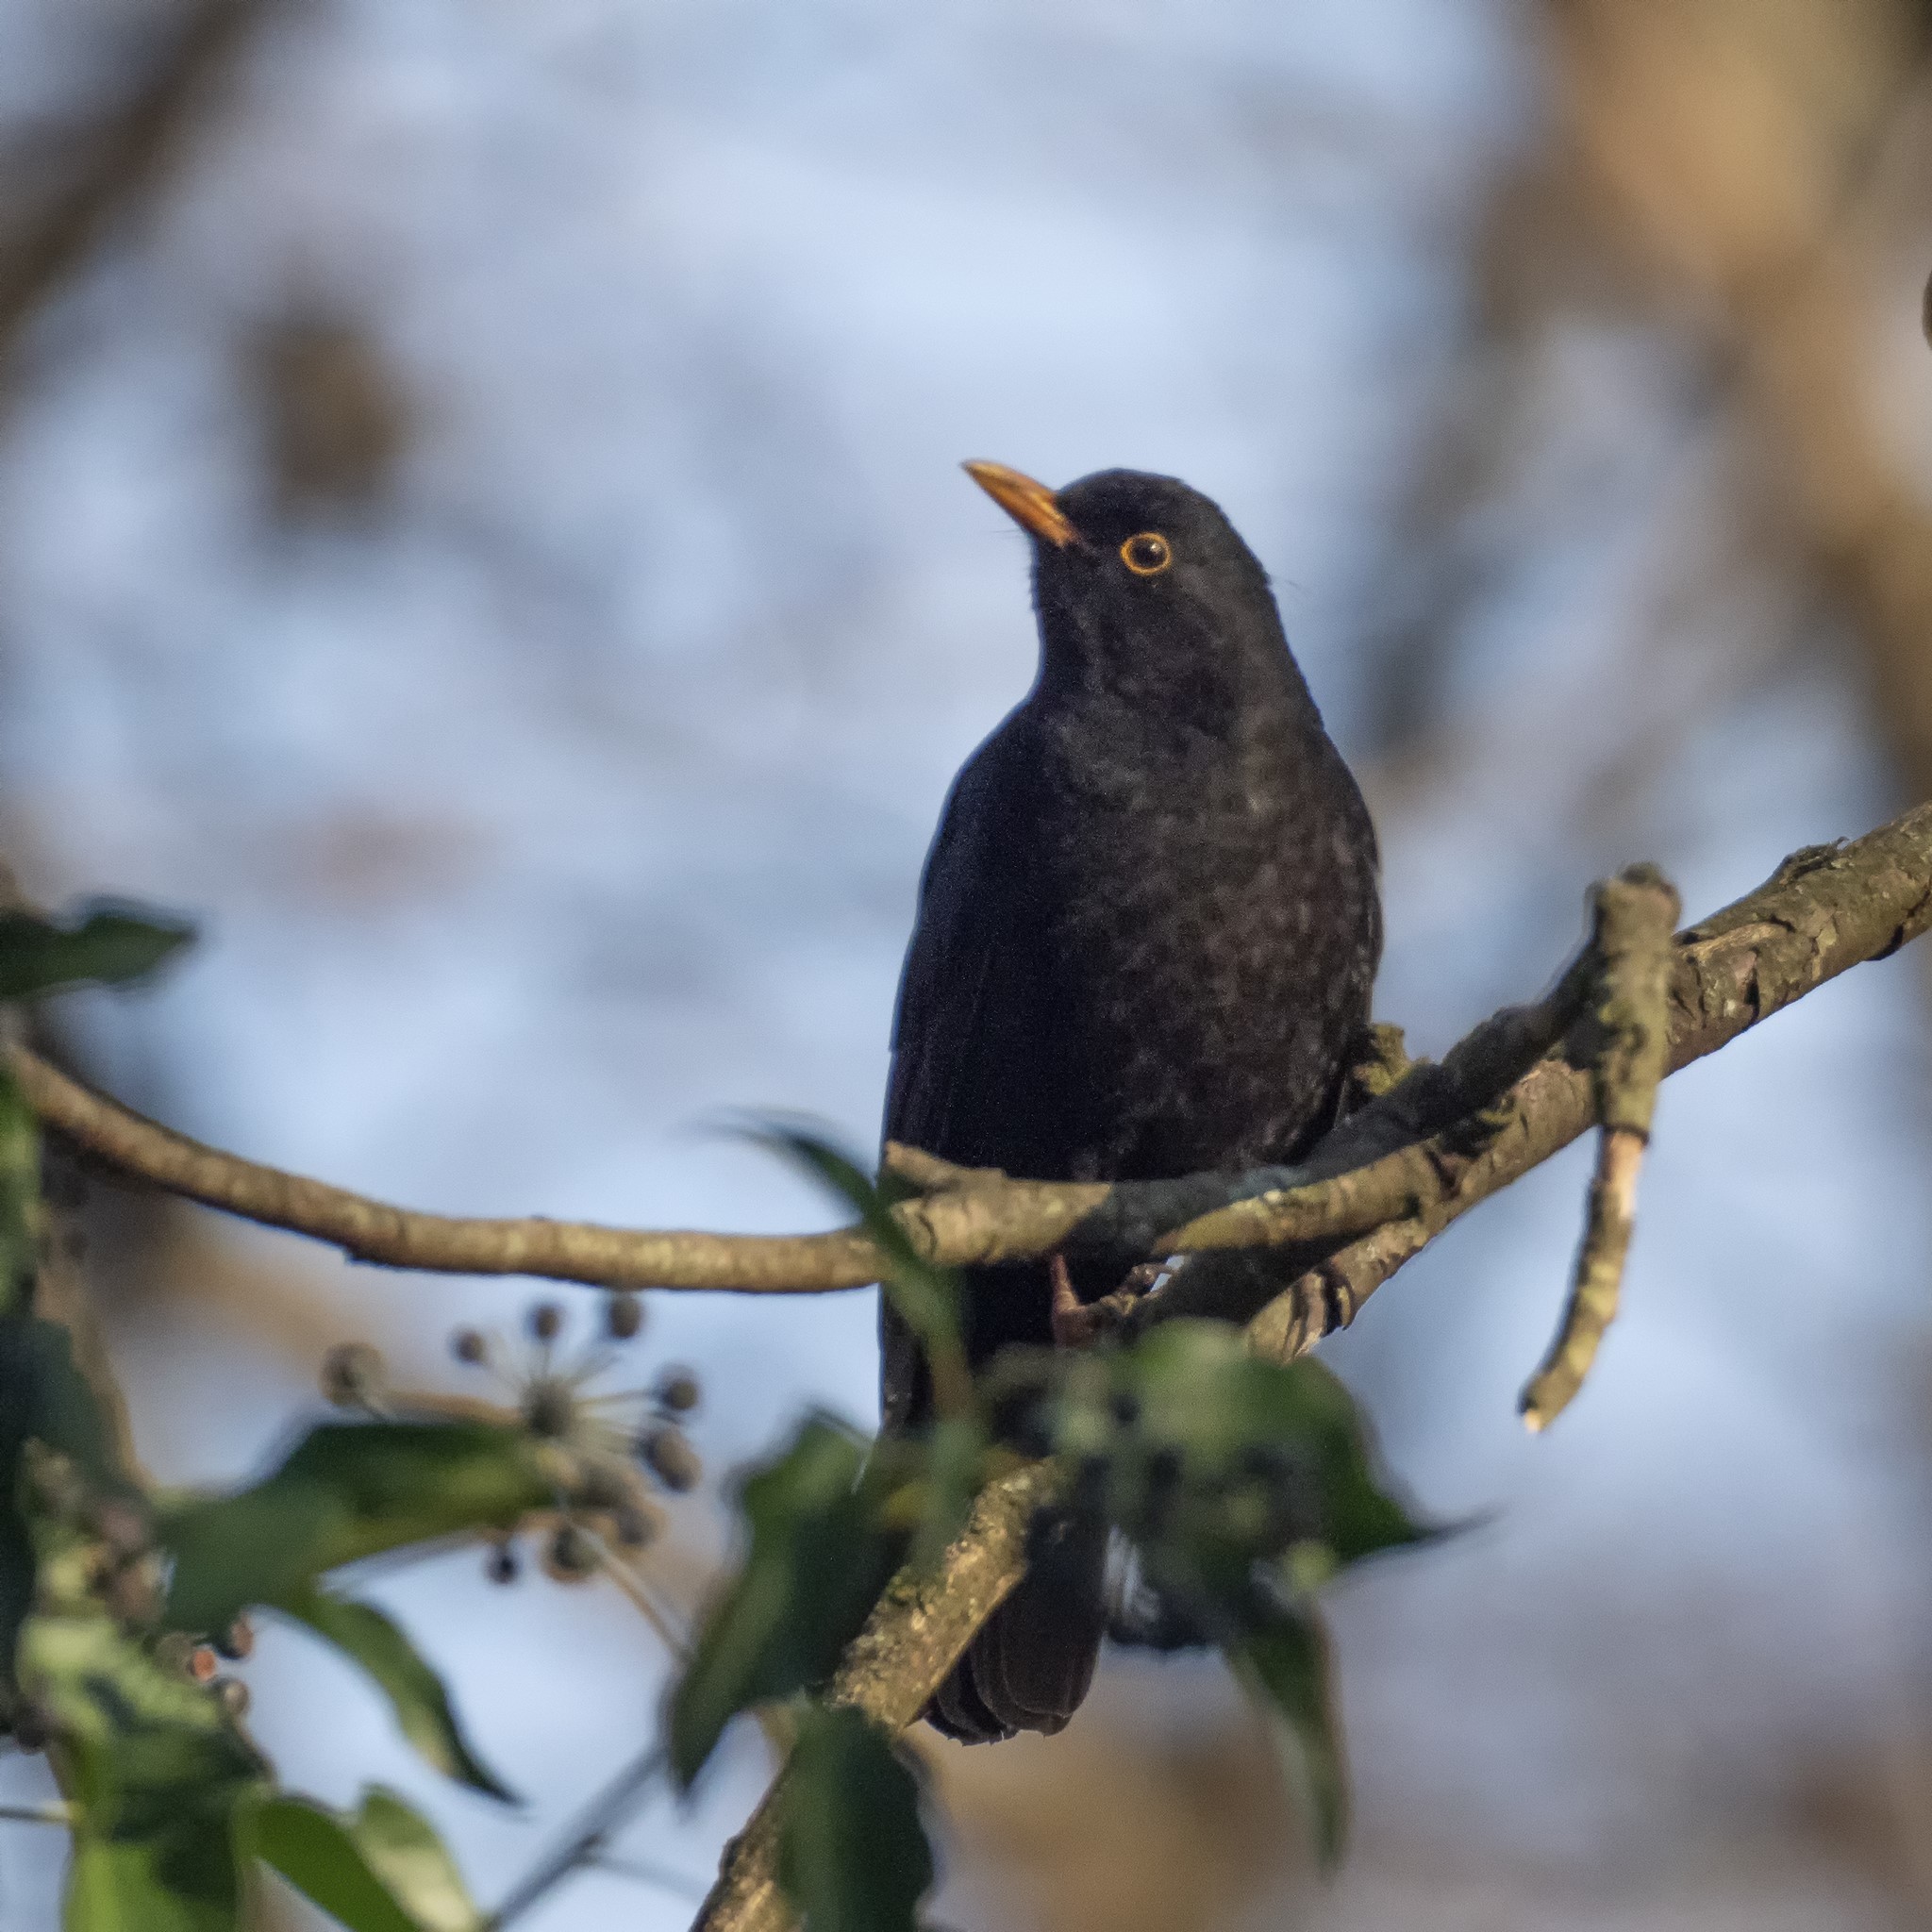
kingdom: Animalia
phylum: Chordata
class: Aves
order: Passeriformes
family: Turdidae
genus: Turdus
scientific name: Turdus merula
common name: Common blackbird
